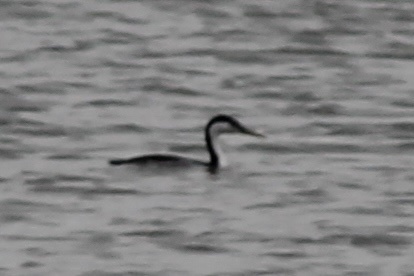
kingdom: Animalia
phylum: Chordata
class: Aves
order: Podicipediformes
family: Podicipedidae
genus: Aechmophorus
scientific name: Aechmophorus occidentalis
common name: Western grebe
